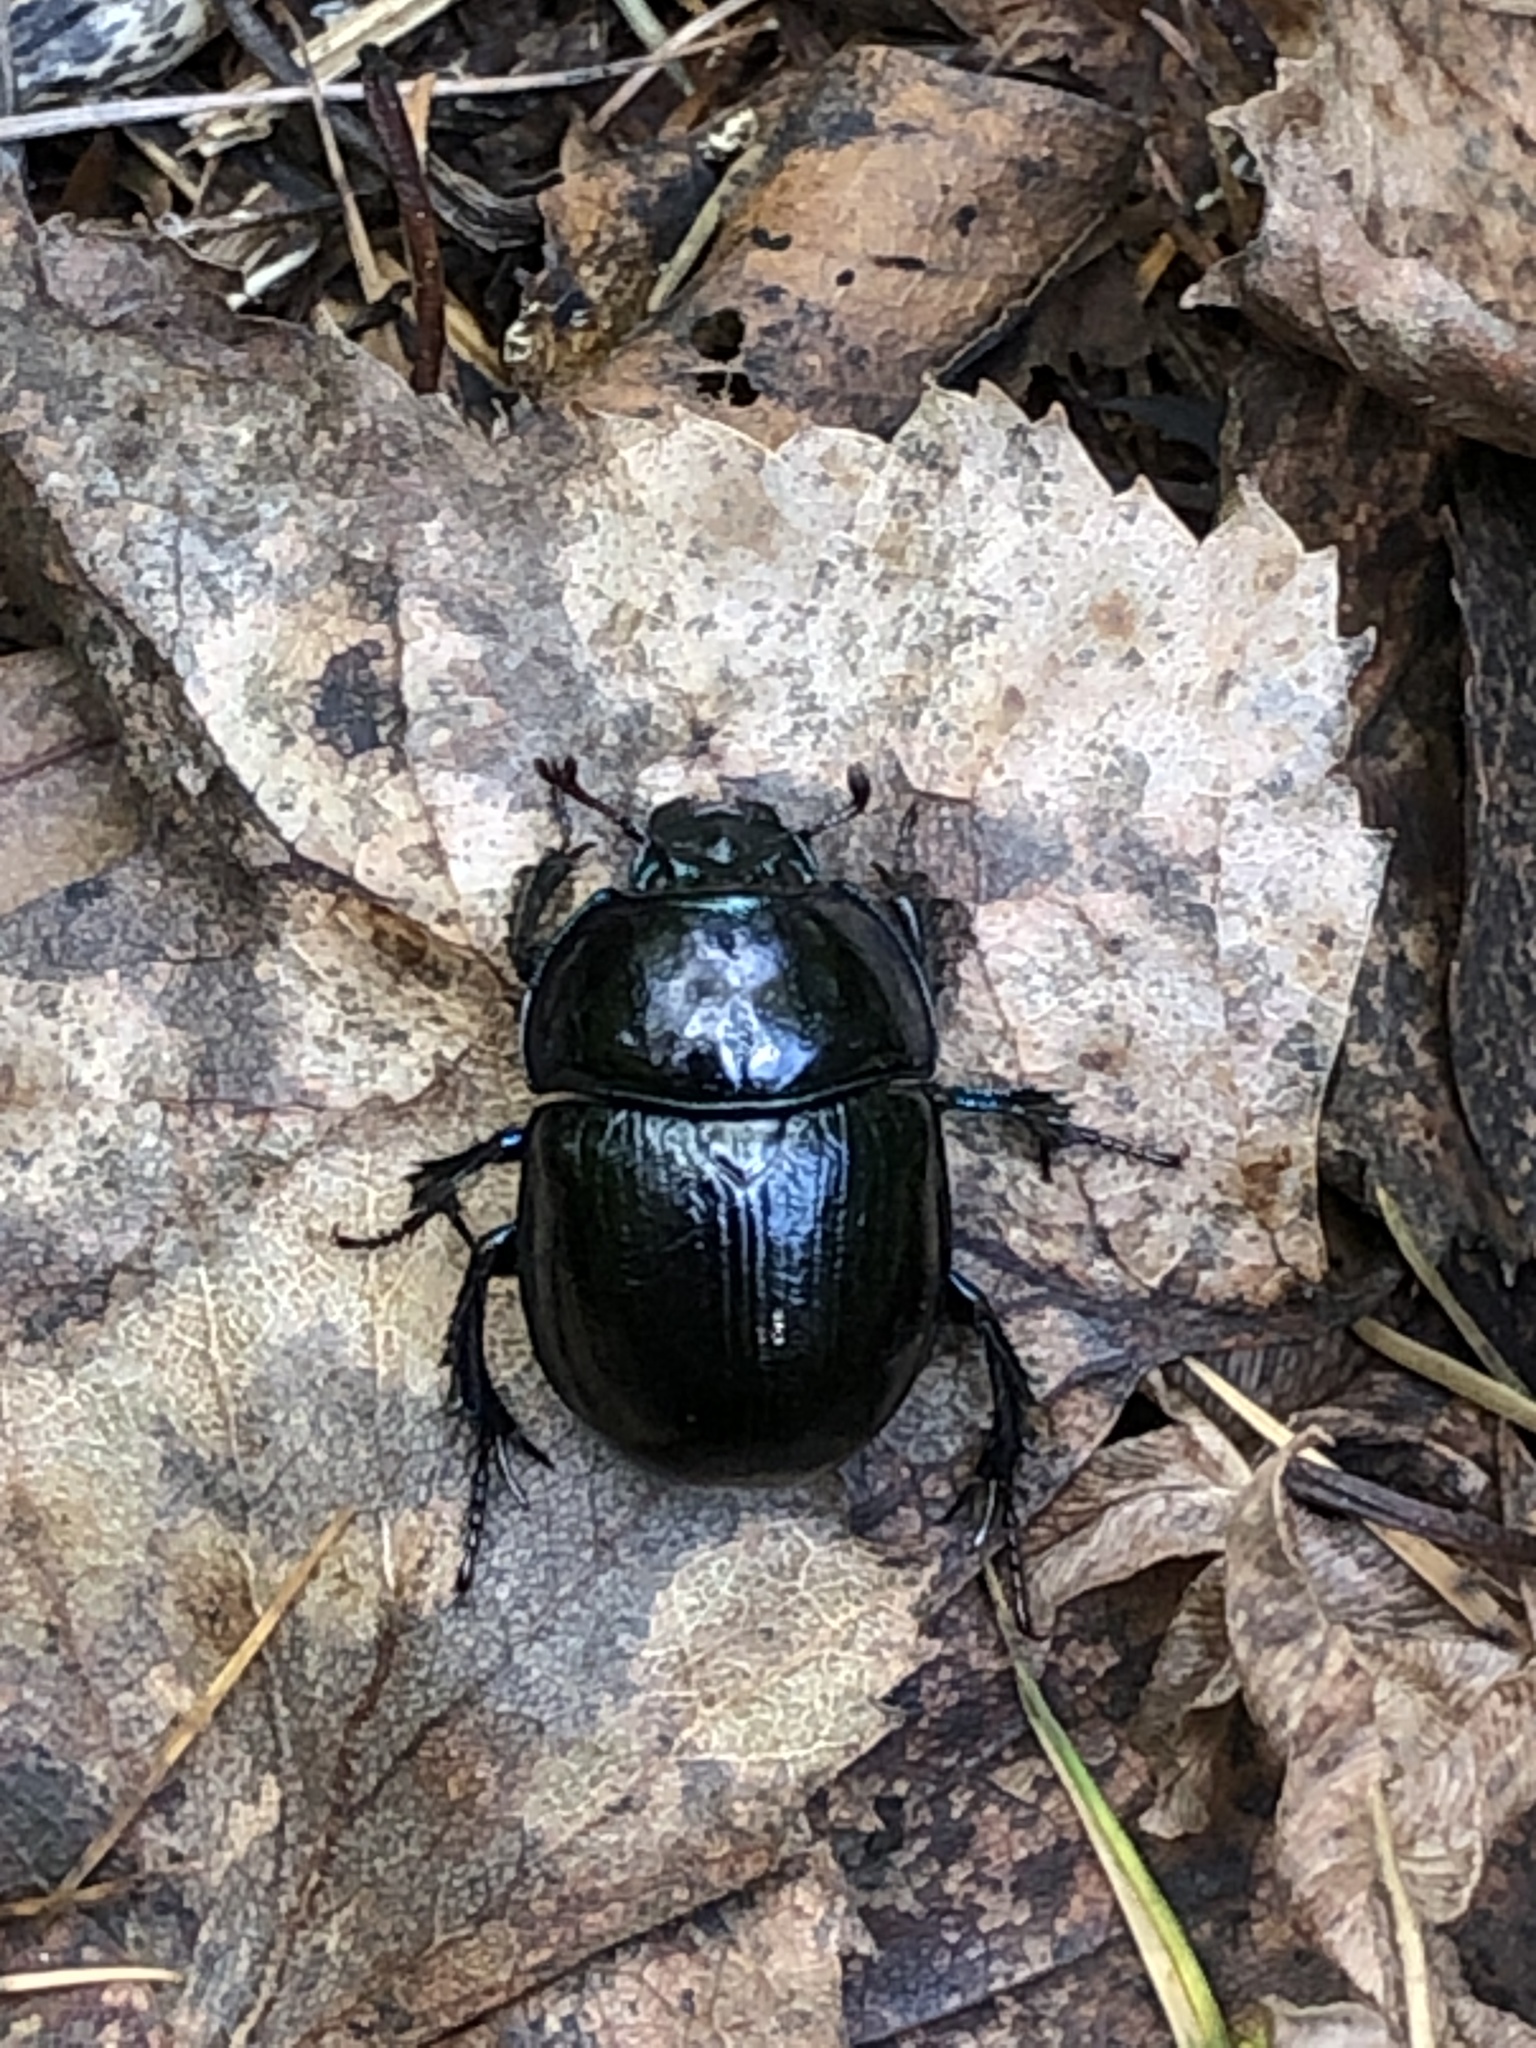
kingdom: Animalia
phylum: Arthropoda
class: Insecta
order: Coleoptera
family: Geotrupidae
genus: Anoplotrupes
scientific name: Anoplotrupes stercorosus
